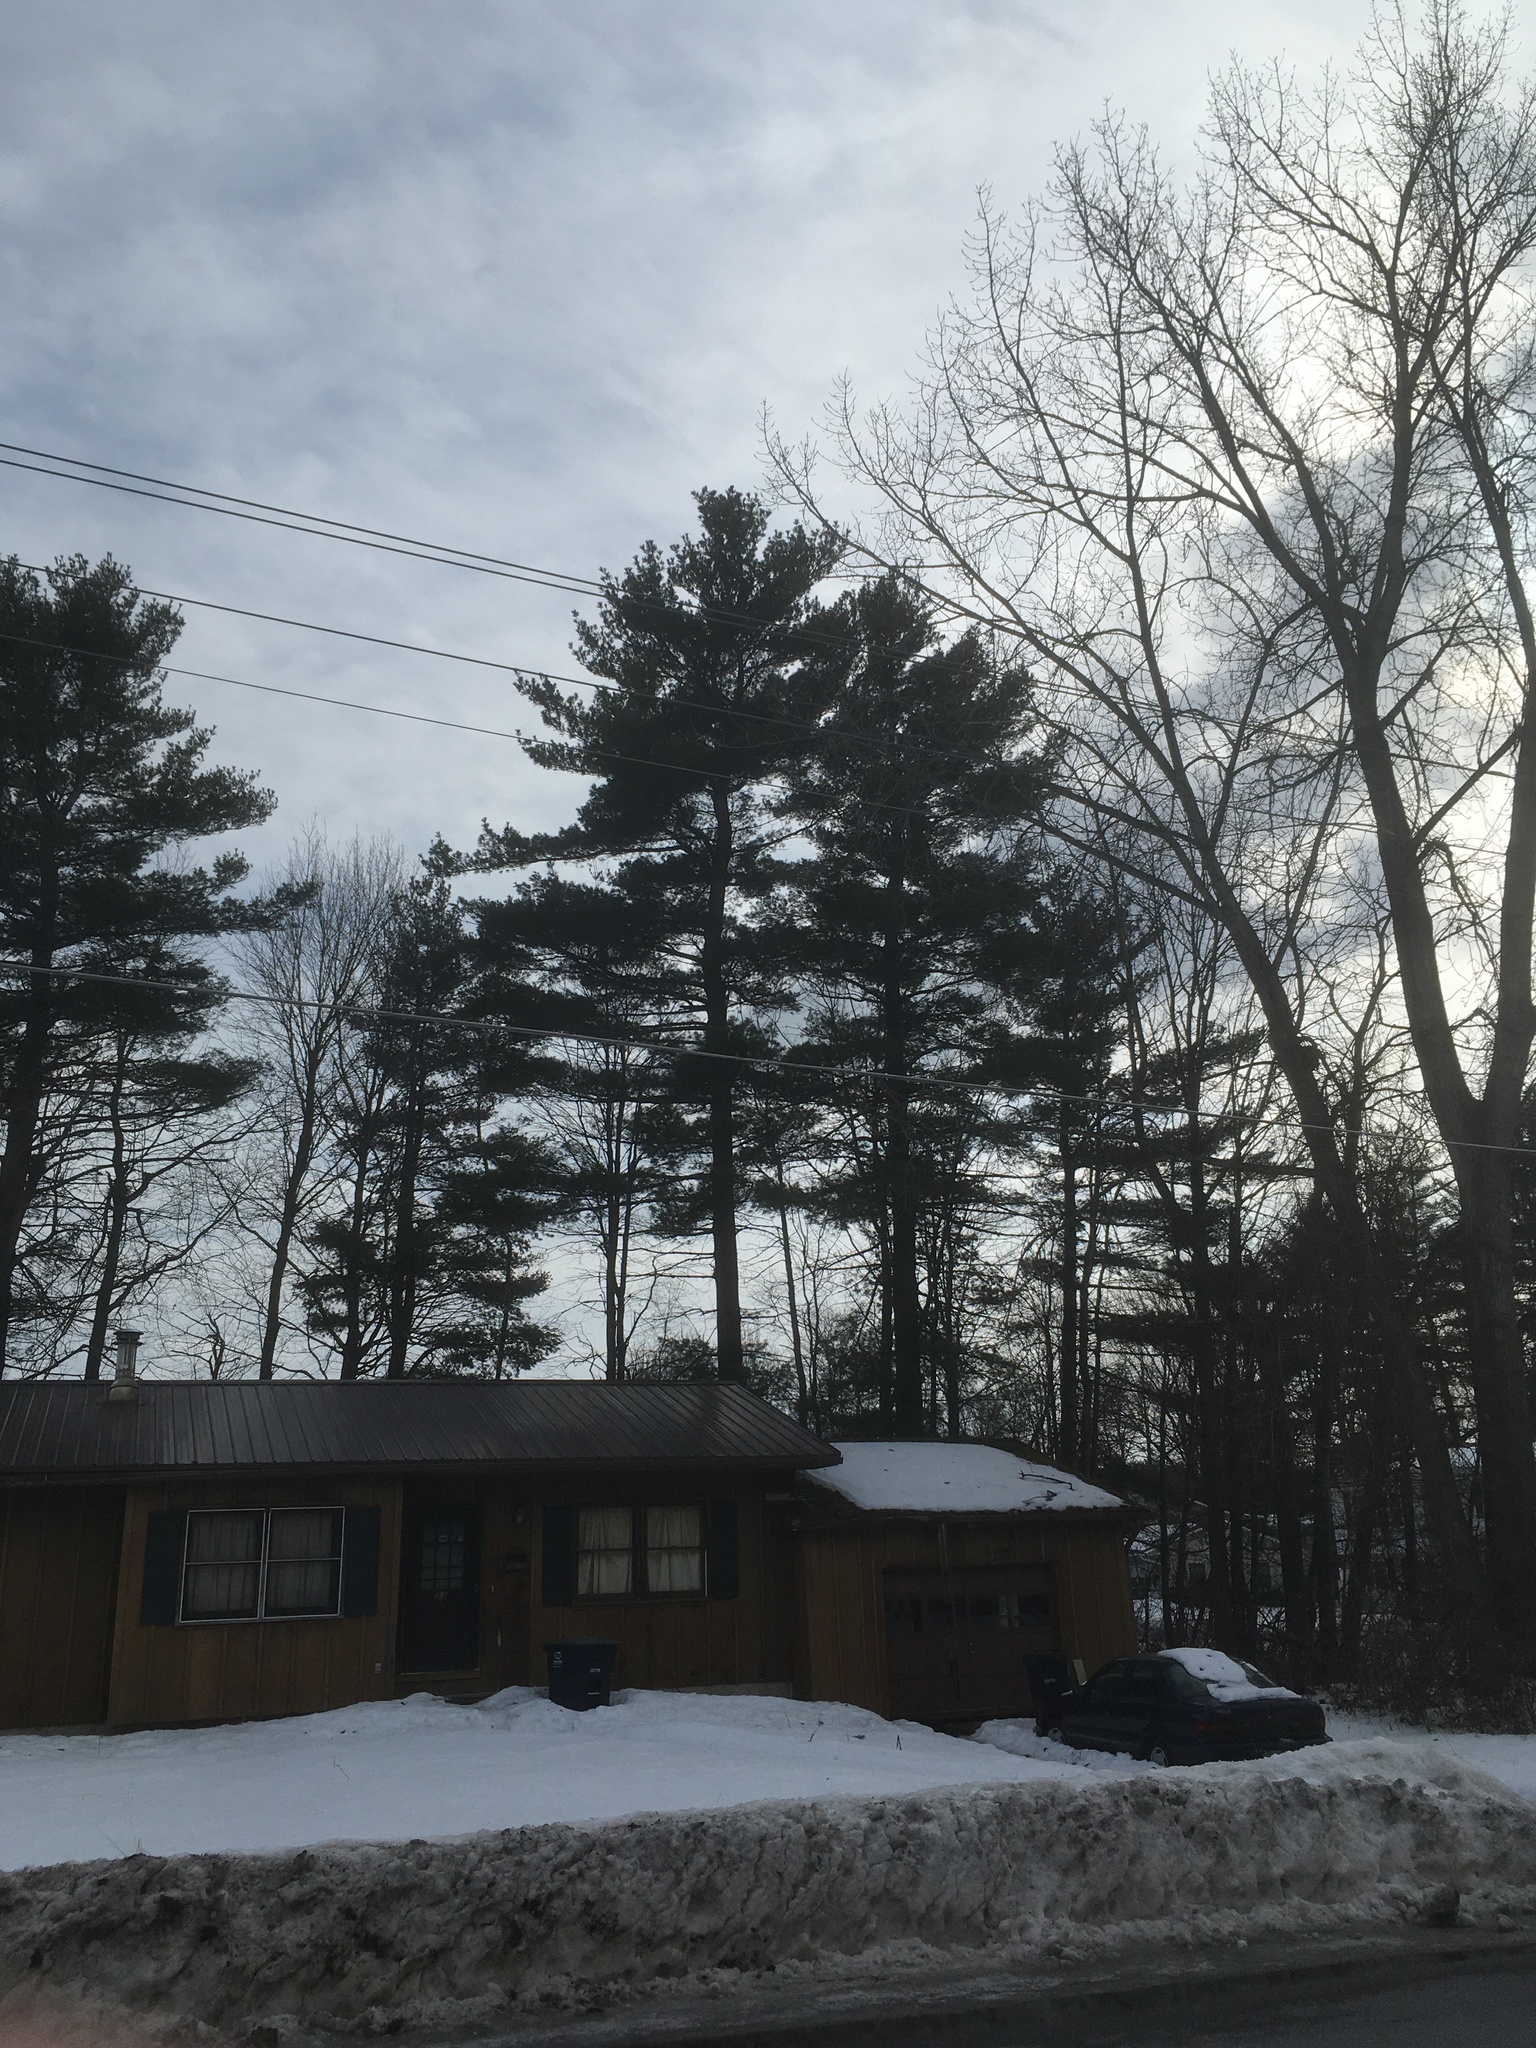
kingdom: Plantae
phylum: Tracheophyta
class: Pinopsida
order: Pinales
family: Pinaceae
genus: Pinus
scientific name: Pinus strobus
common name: Weymouth pine
